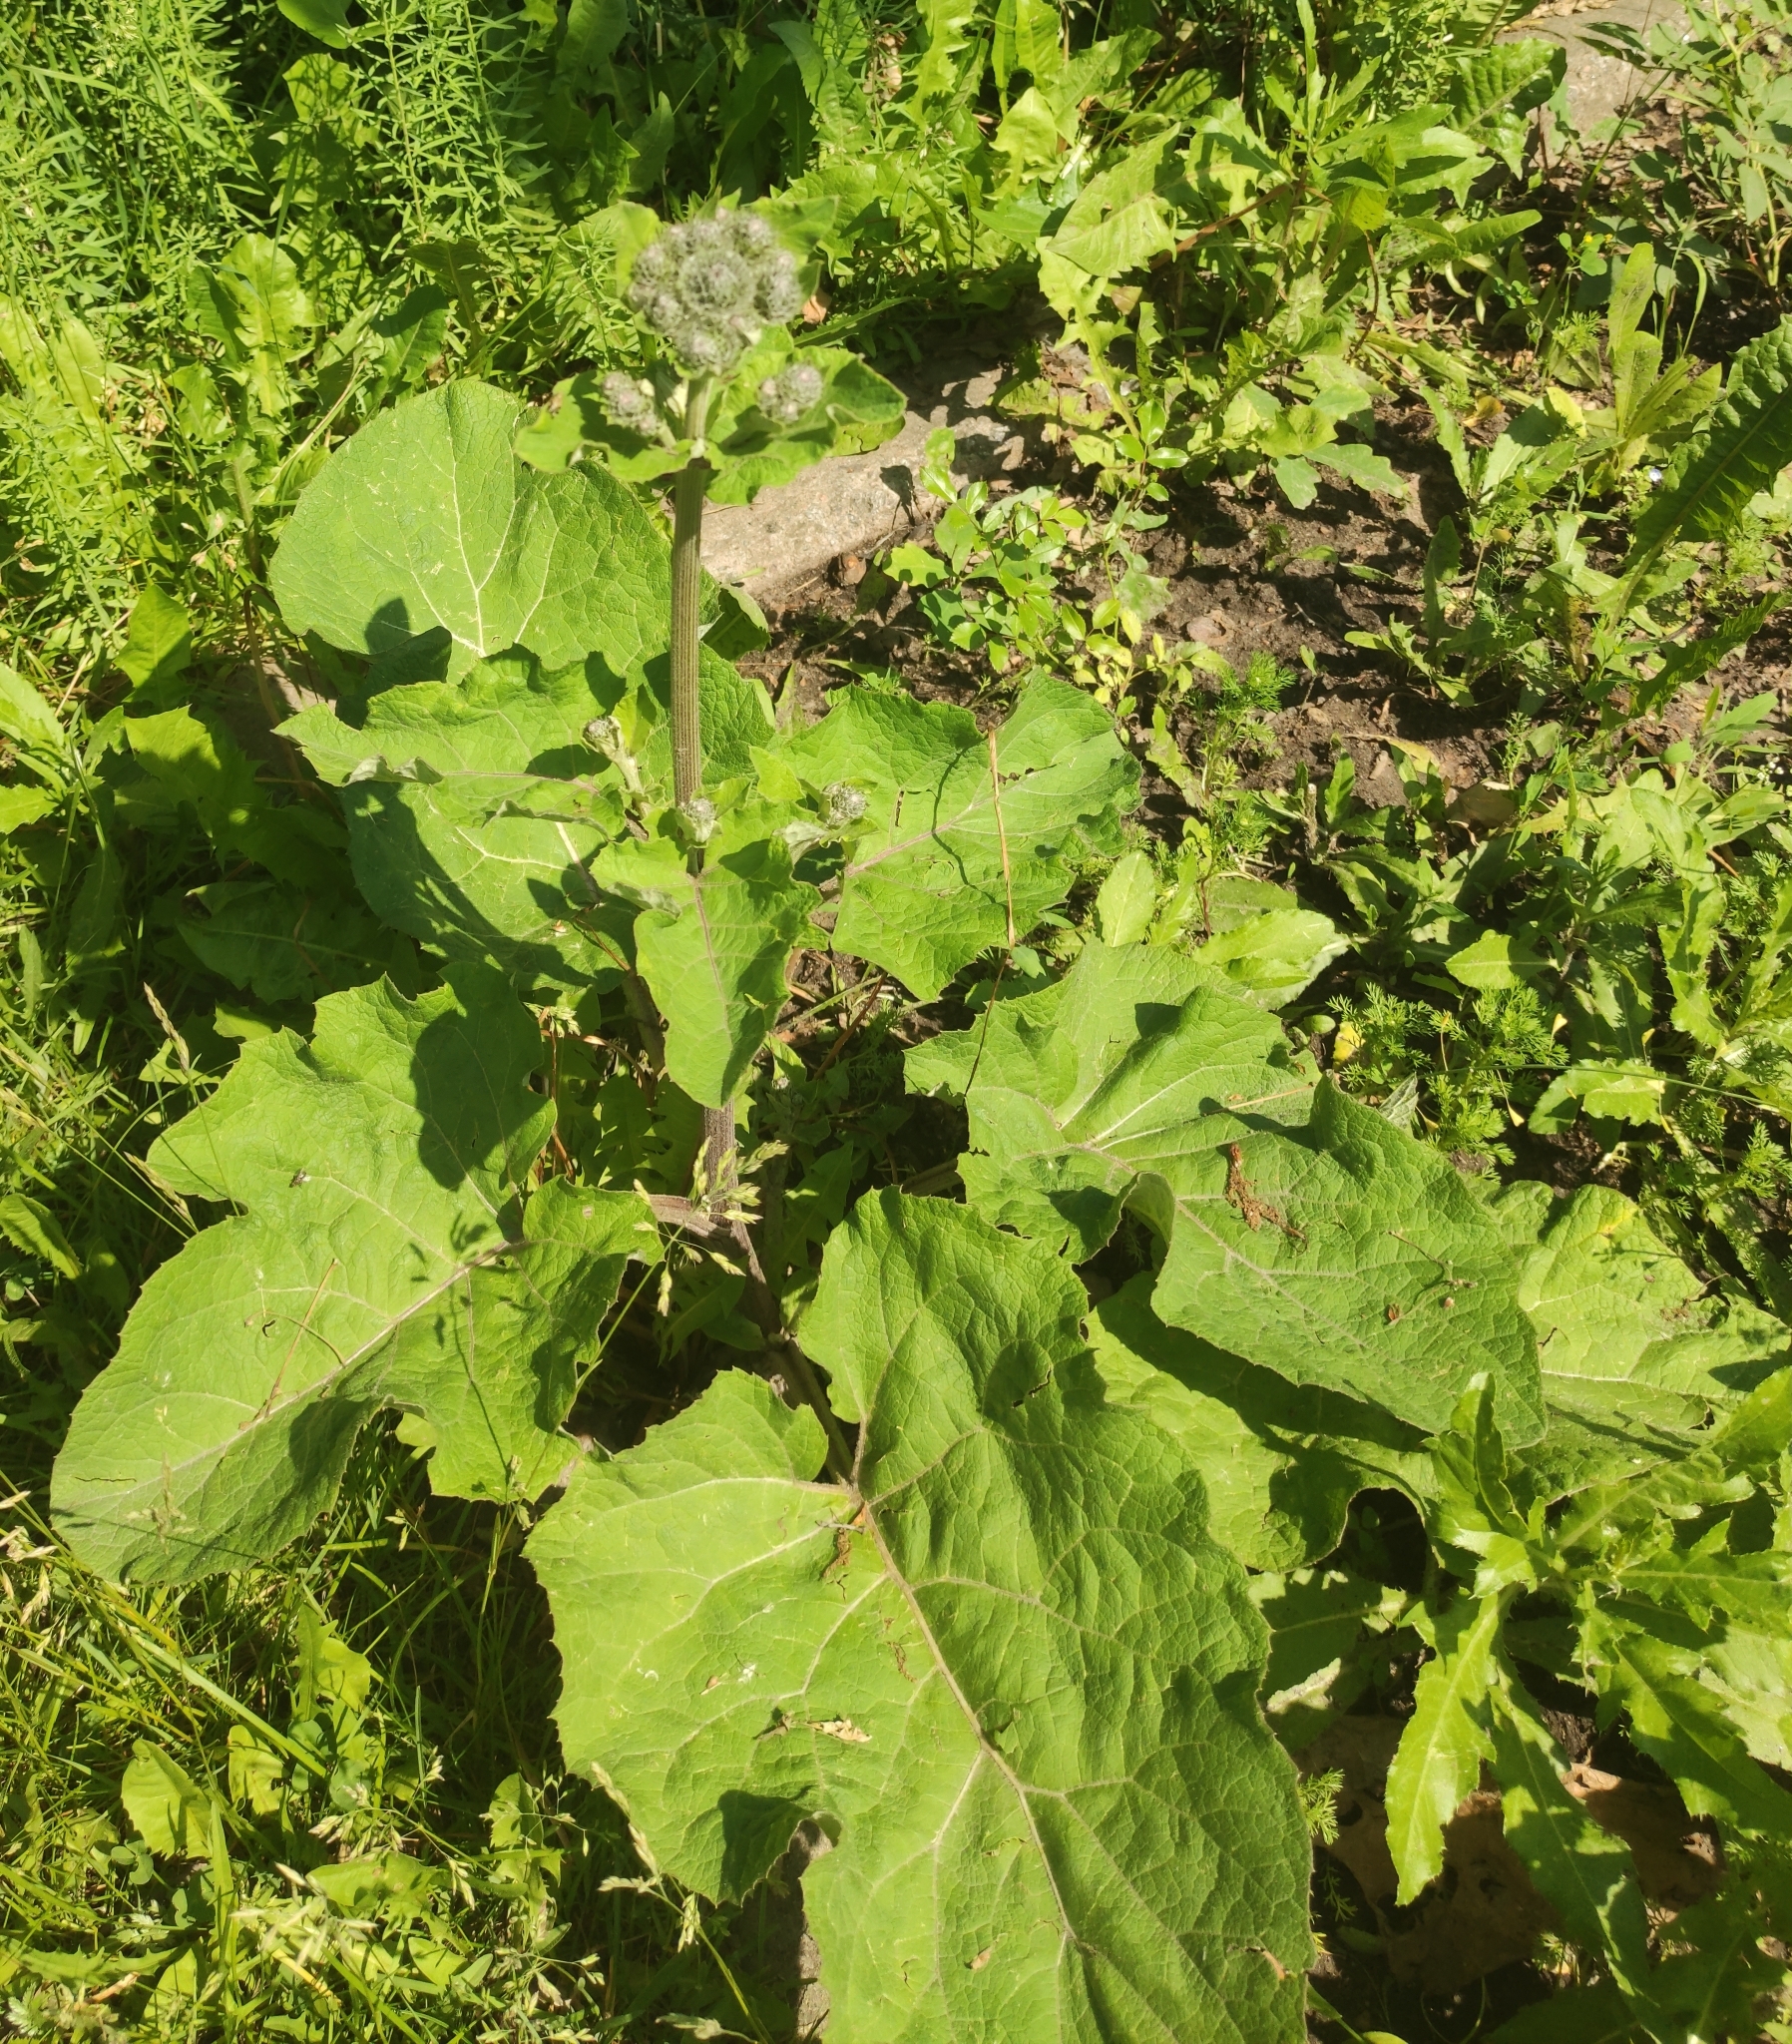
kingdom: Plantae
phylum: Tracheophyta
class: Magnoliopsida
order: Asterales
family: Asteraceae
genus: Arctium
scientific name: Arctium tomentosum
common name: Woolly burdock
